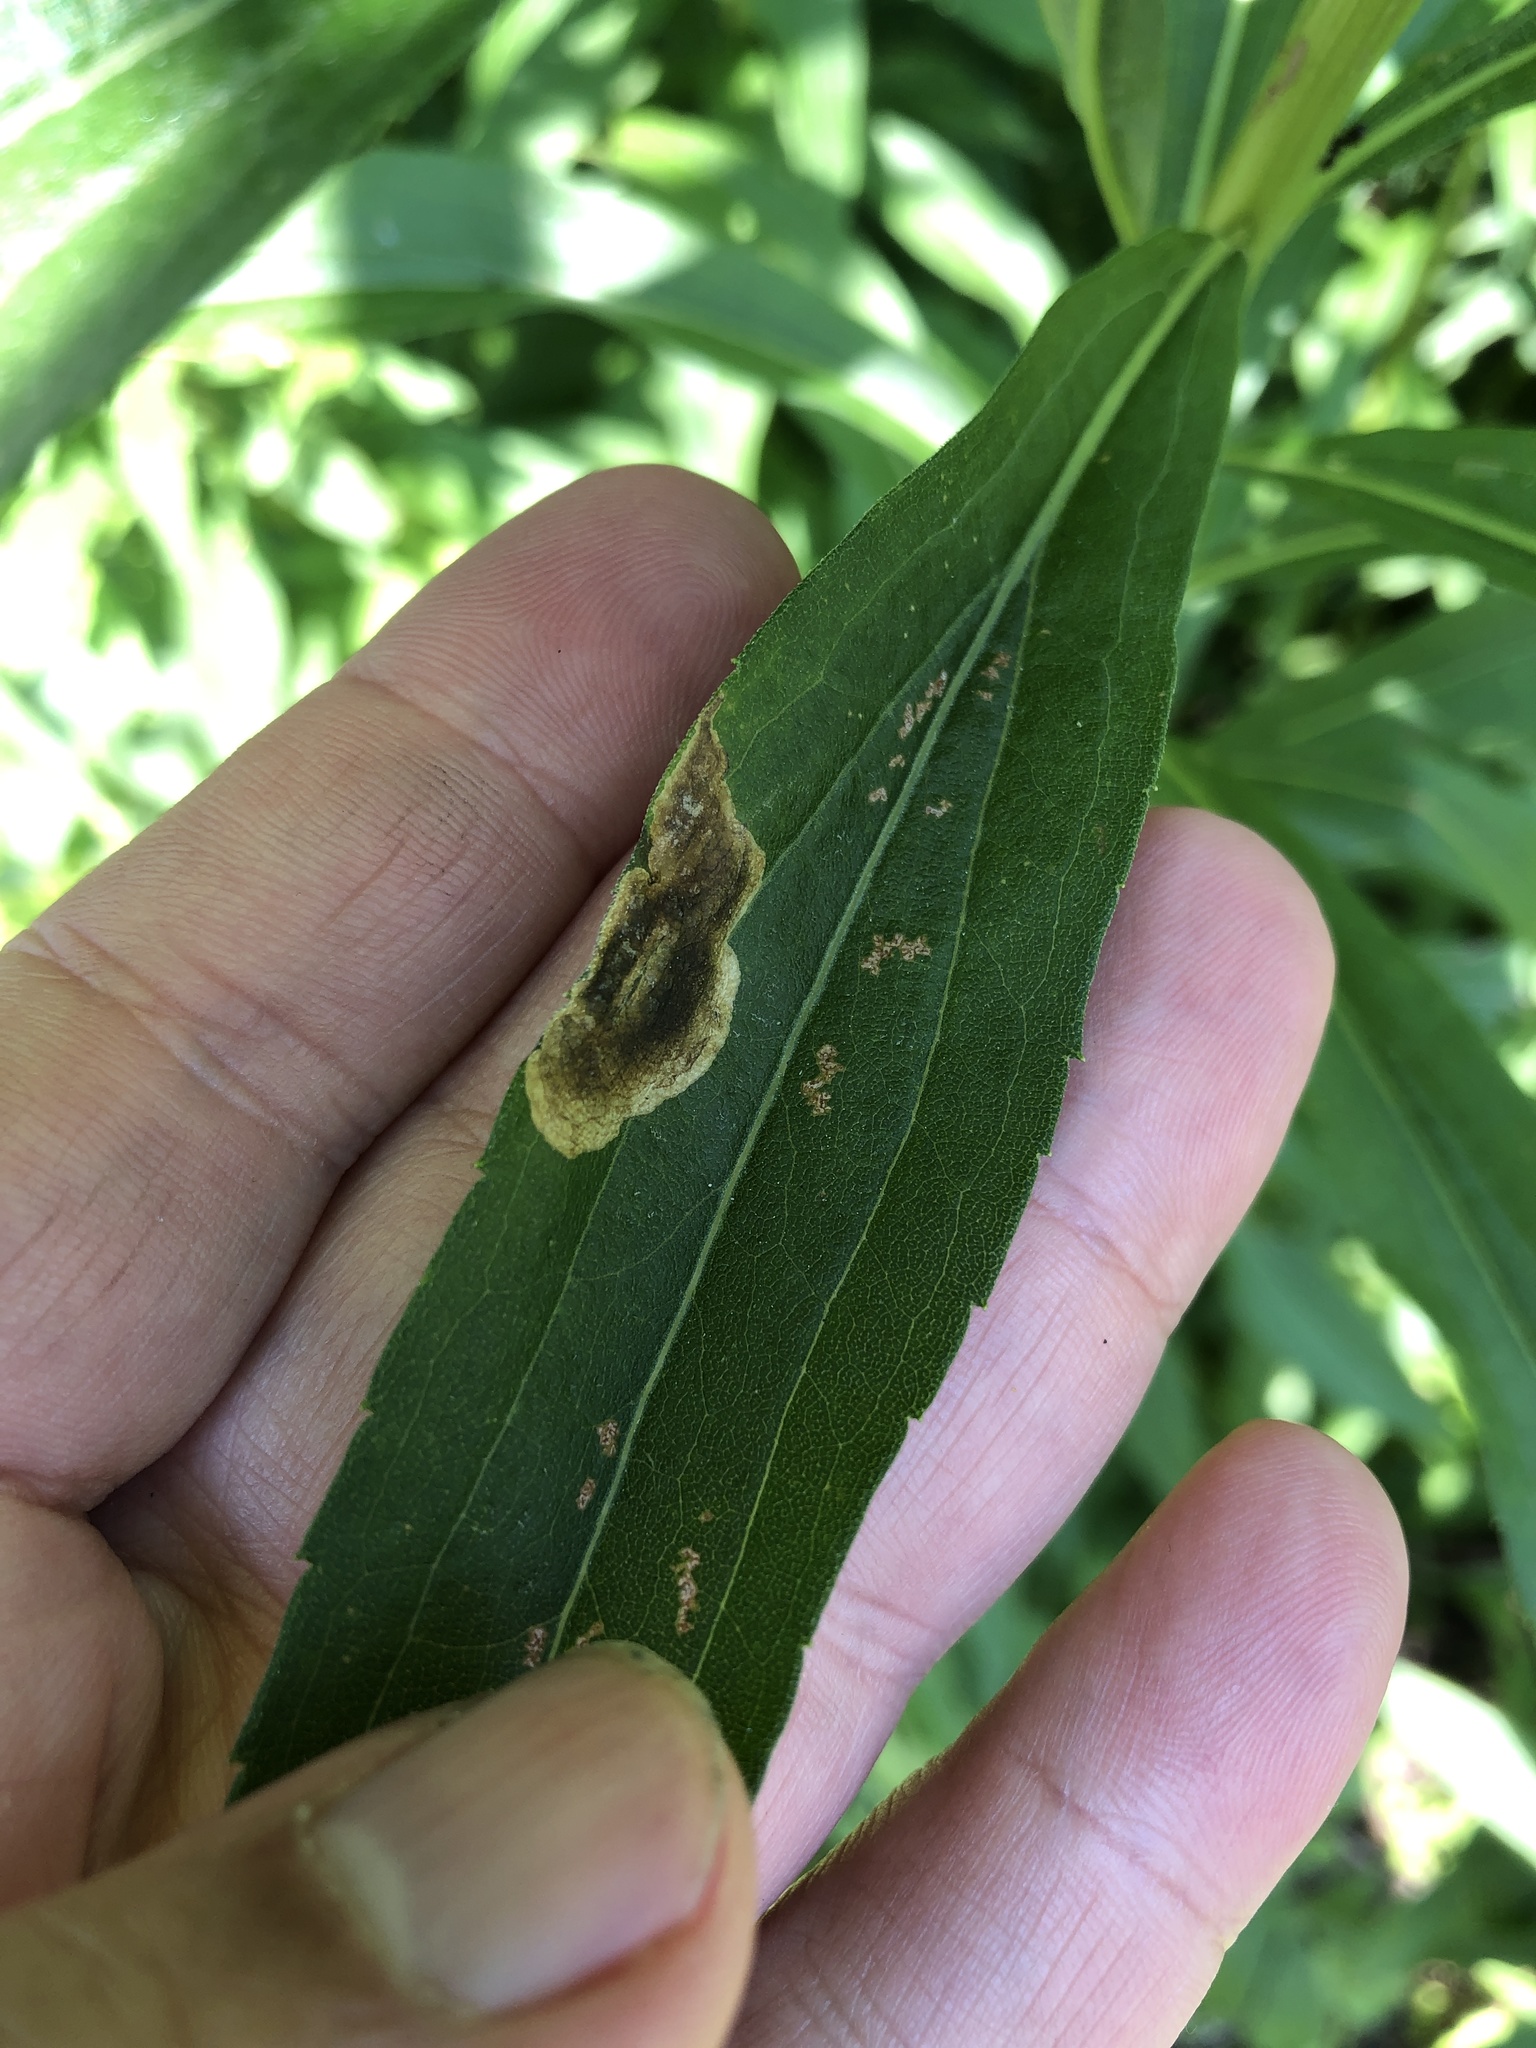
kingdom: Animalia
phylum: Arthropoda
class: Insecta
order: Diptera
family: Agromyzidae
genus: Nemorimyza
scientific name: Nemorimyza posticata
